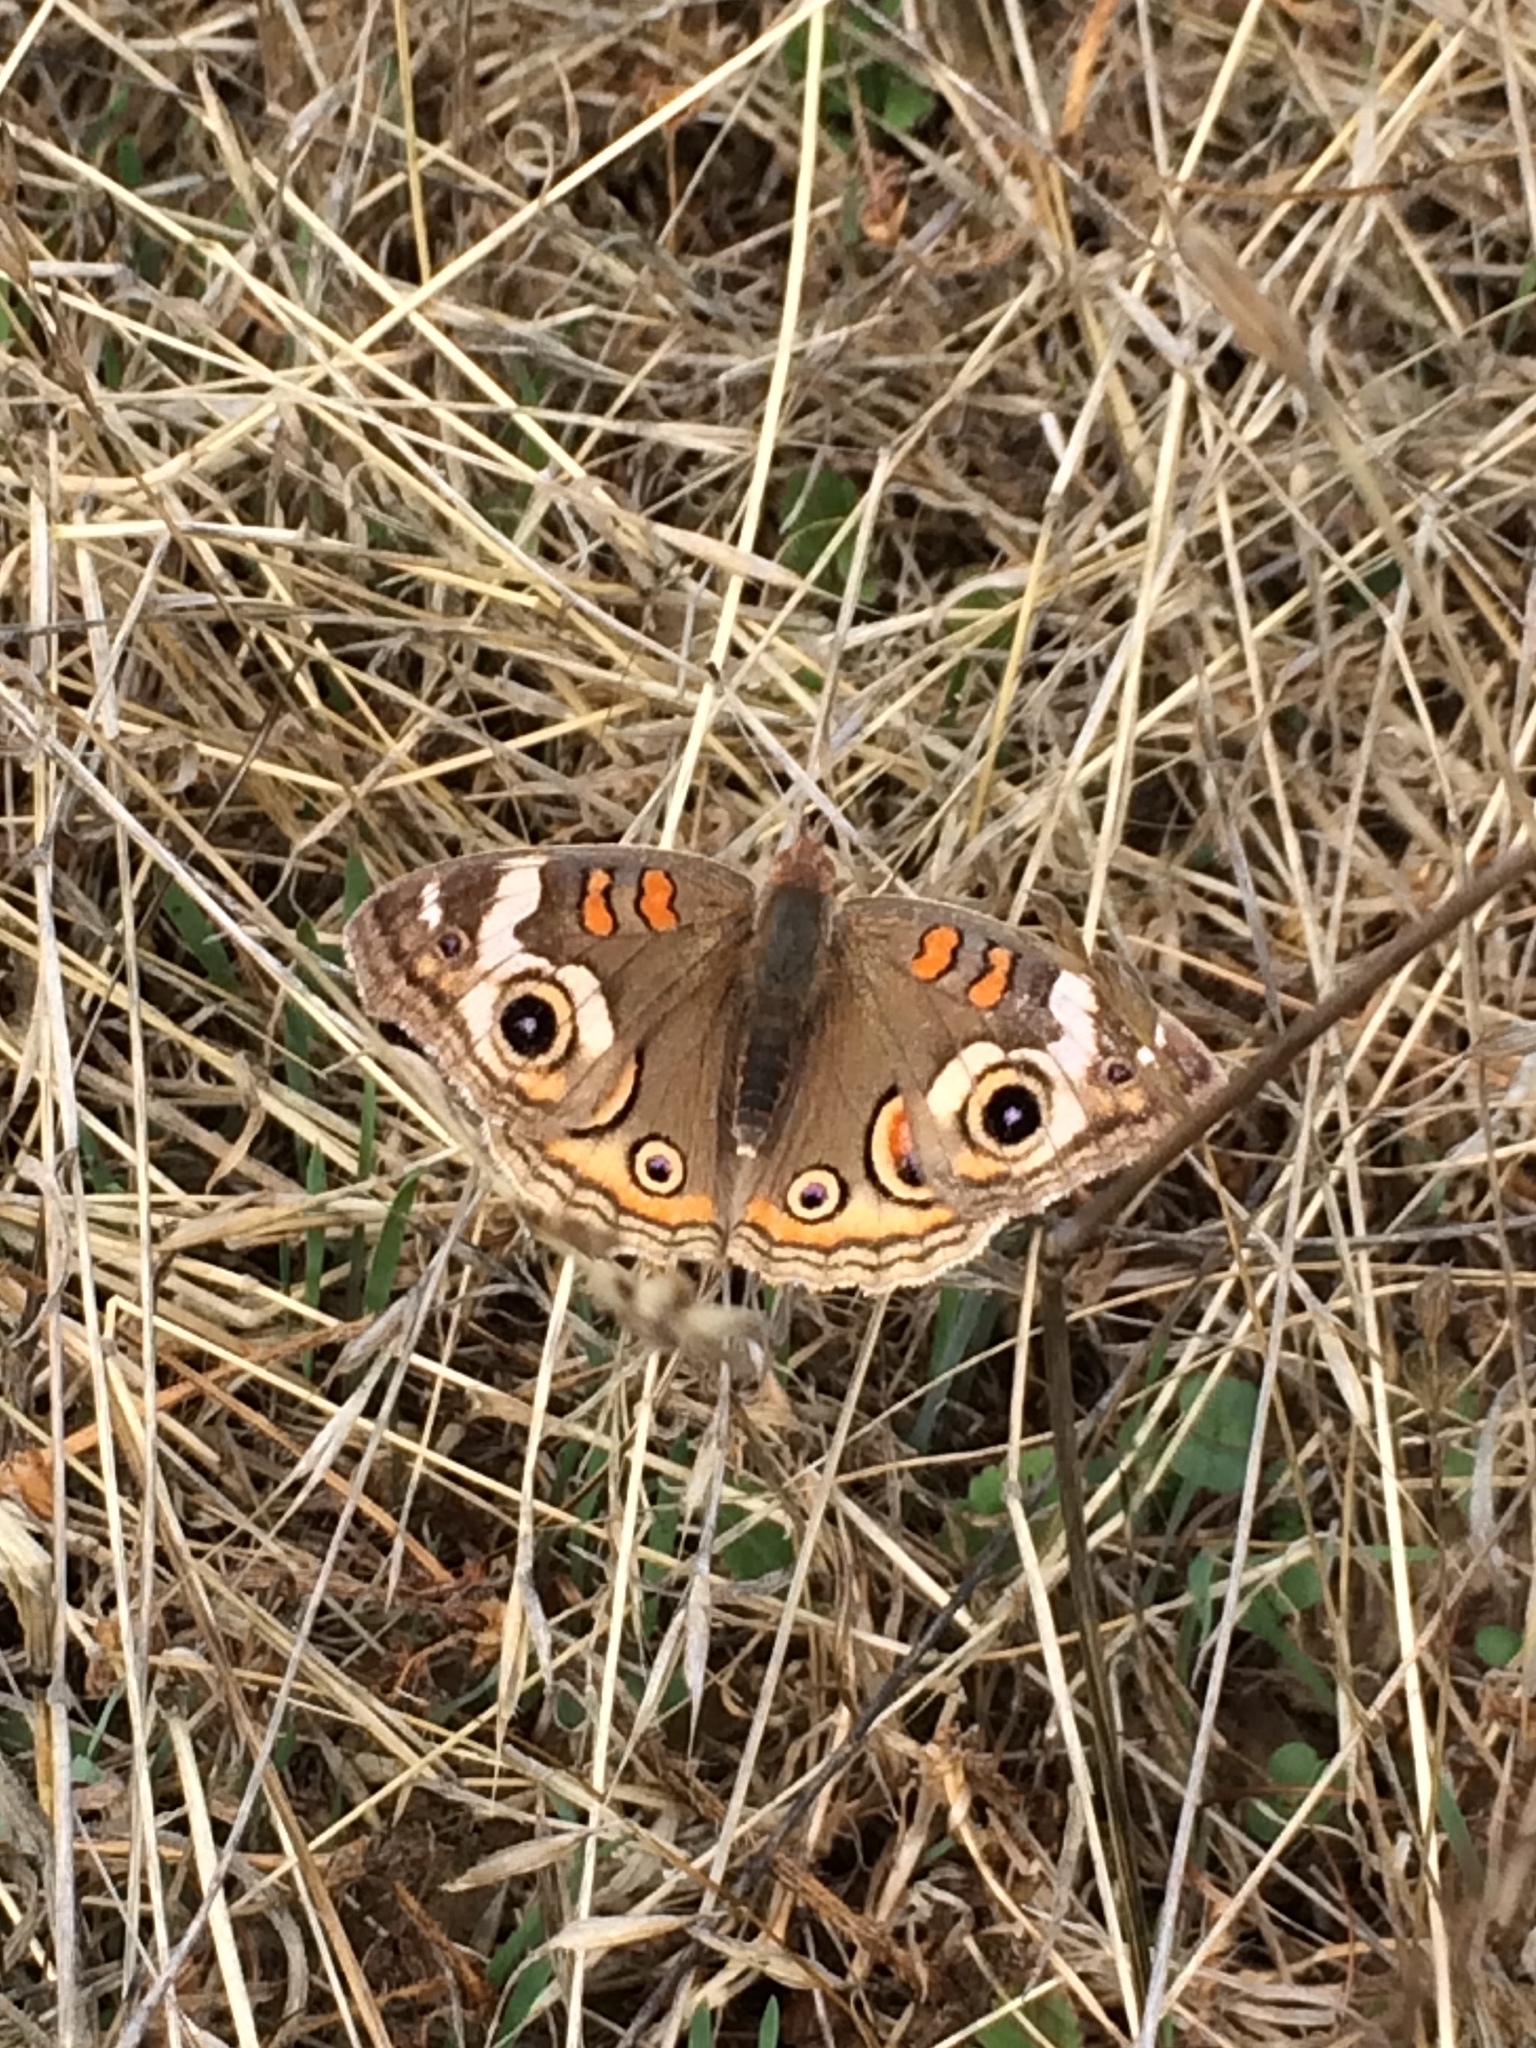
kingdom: Animalia
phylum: Arthropoda
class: Insecta
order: Lepidoptera
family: Nymphalidae
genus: Junonia
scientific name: Junonia grisea
